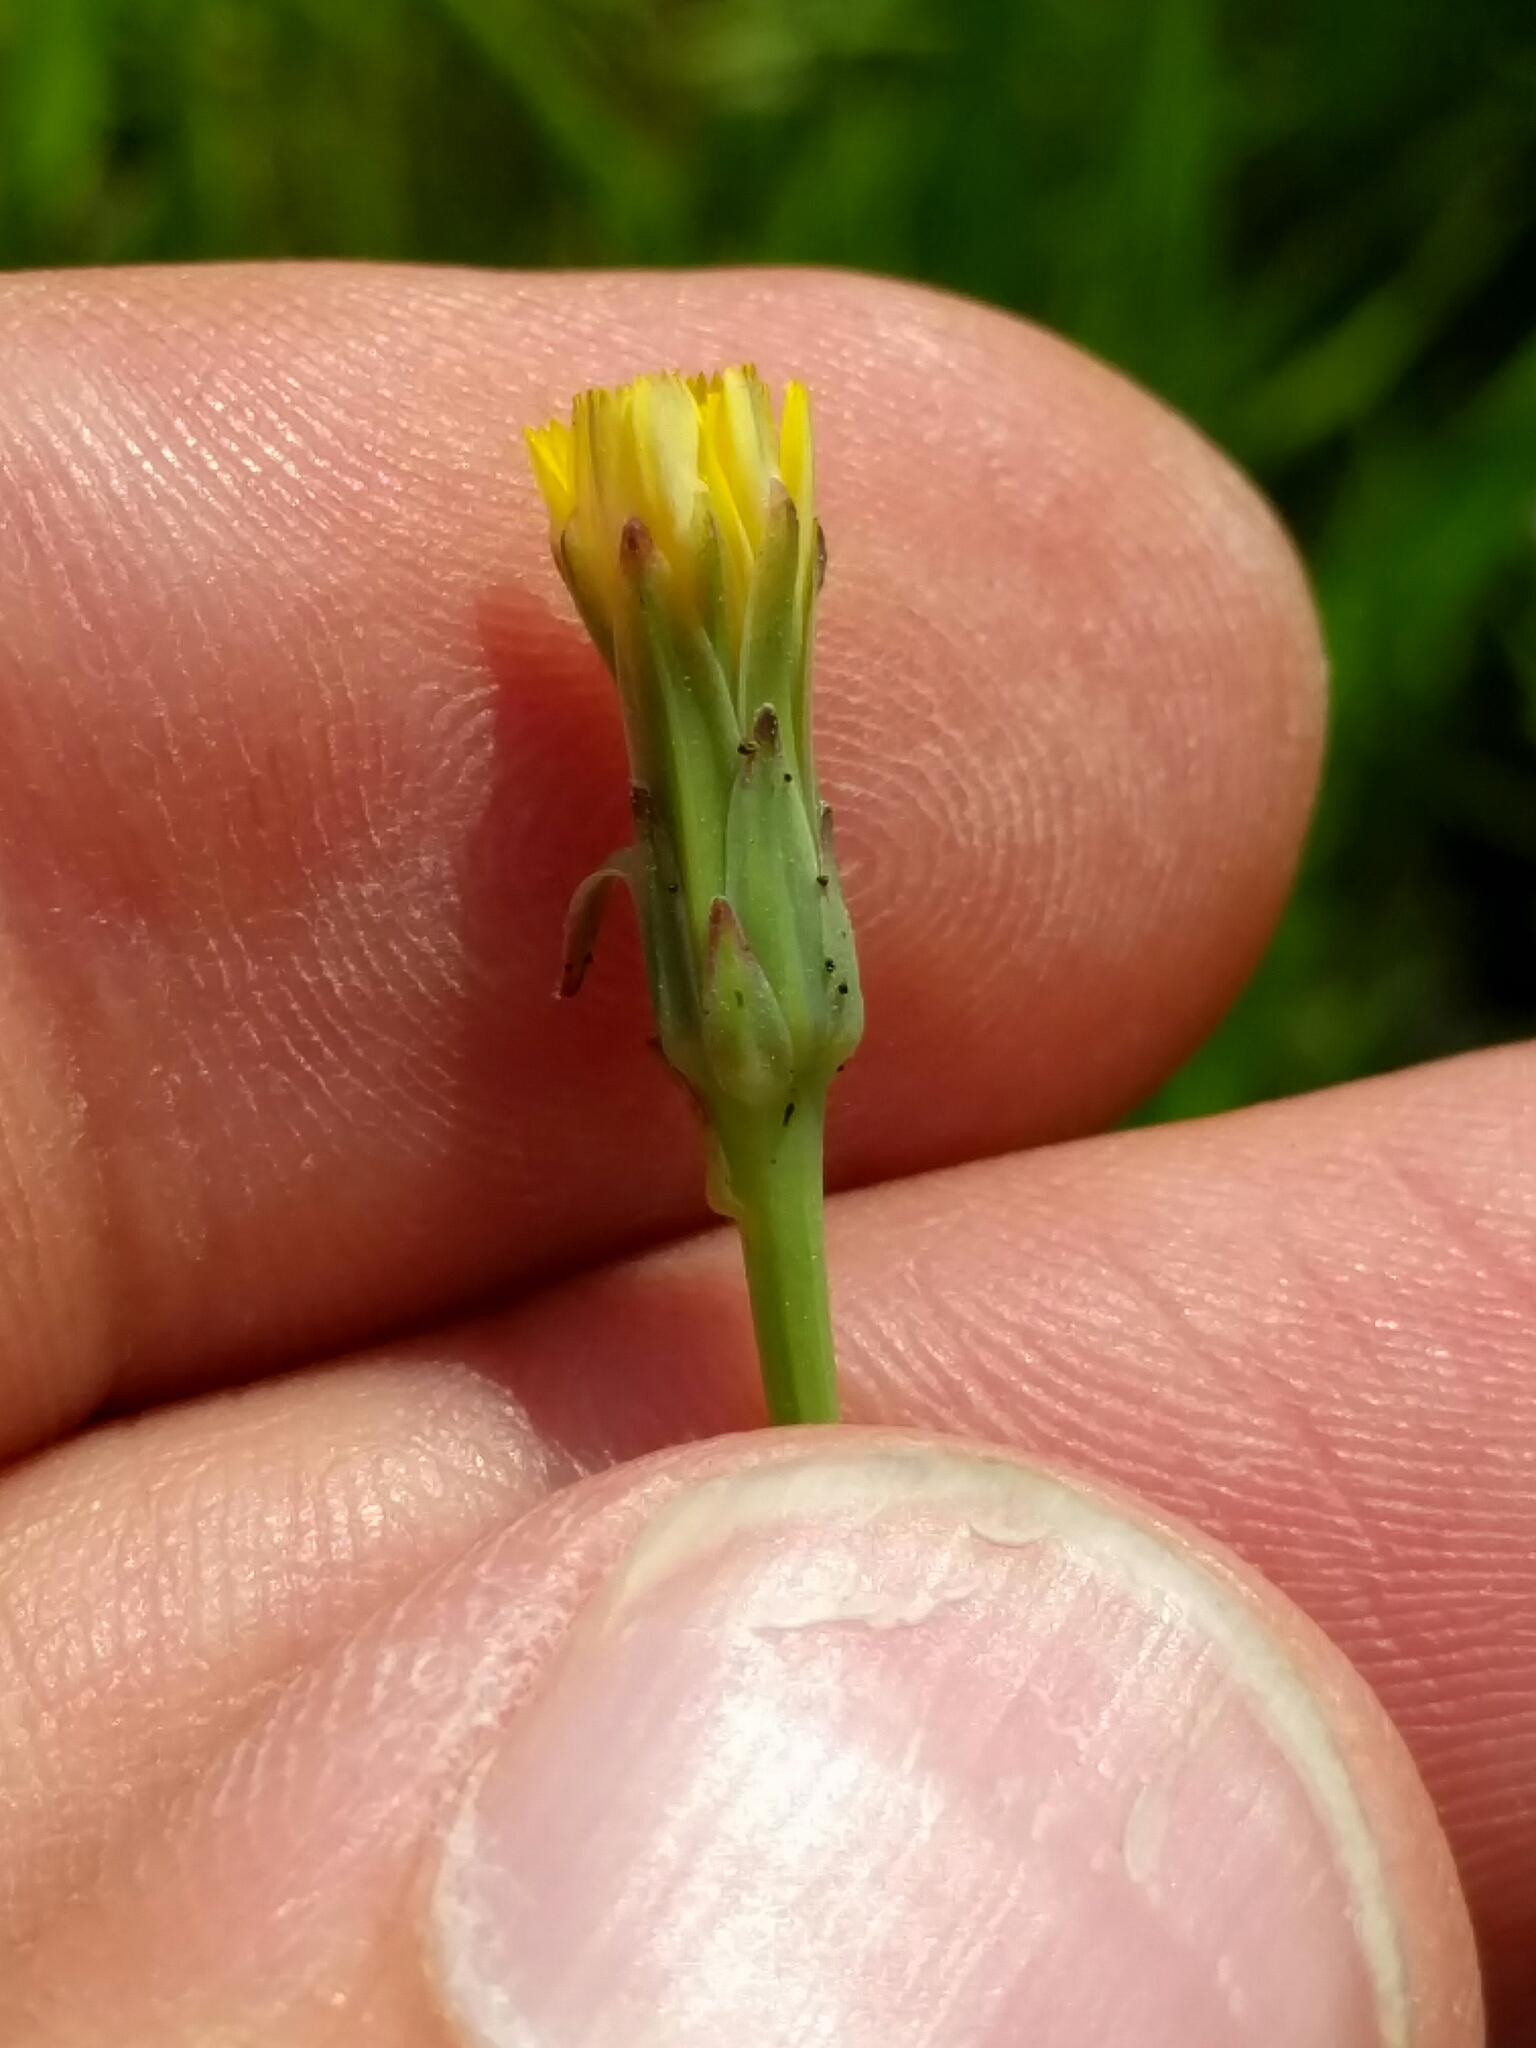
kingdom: Plantae
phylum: Tracheophyta
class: Magnoliopsida
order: Asterales
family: Asteraceae
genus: Hypochaeris
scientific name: Hypochaeris glabra
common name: Smooth catsear
